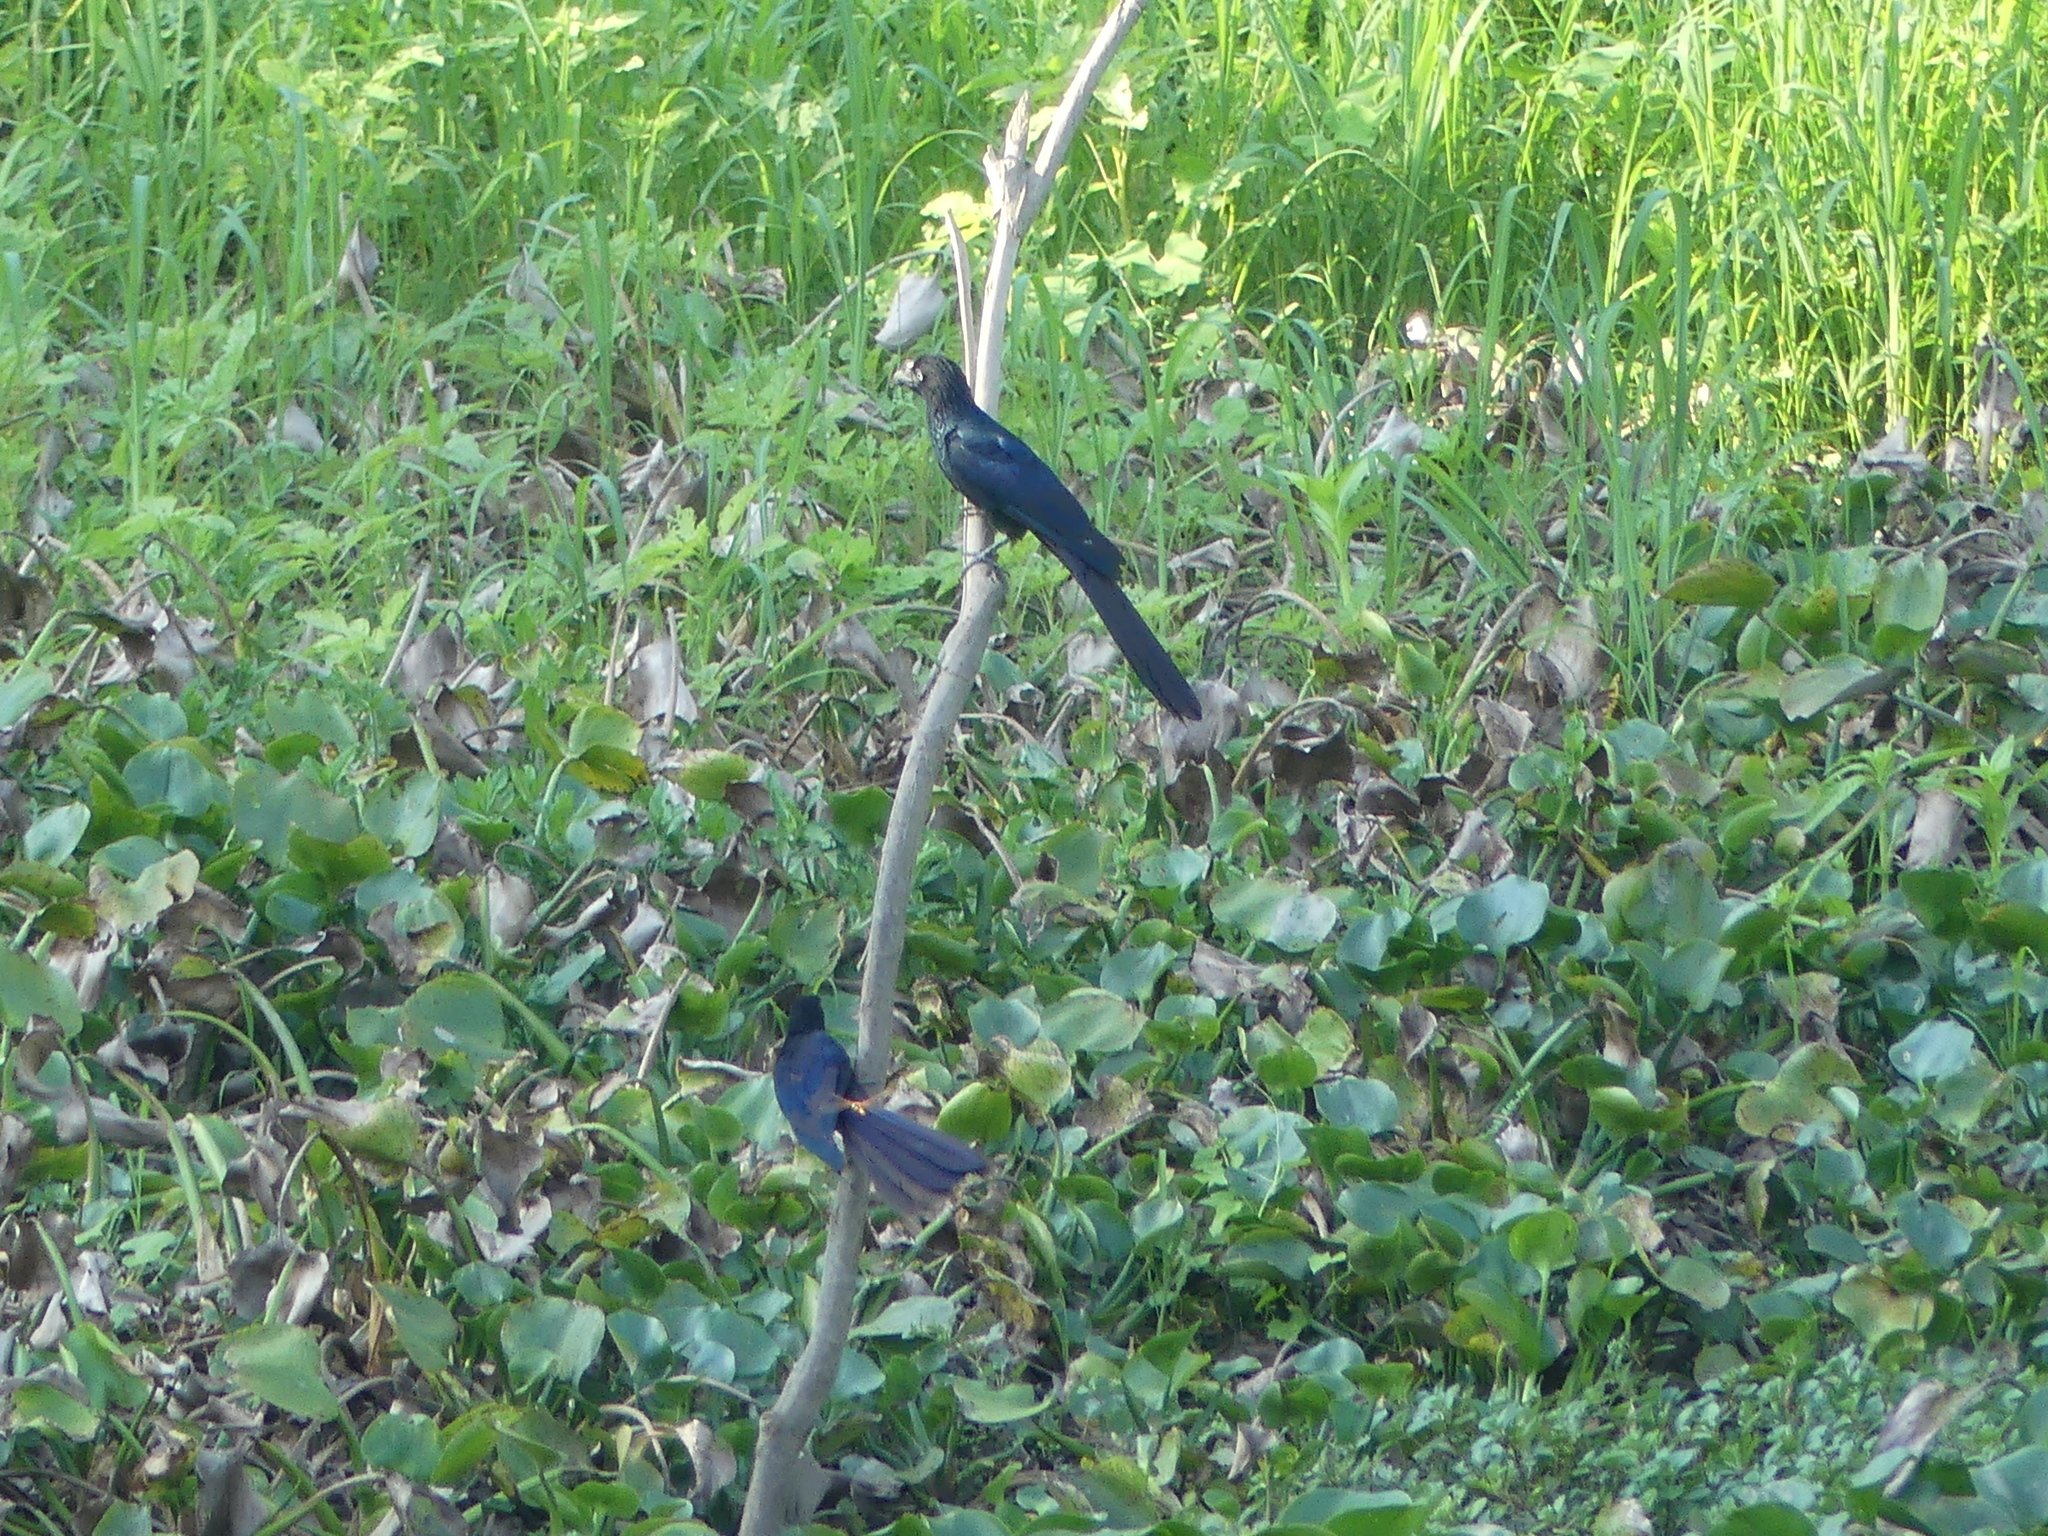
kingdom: Animalia
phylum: Chordata
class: Aves
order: Cuculiformes
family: Cuculidae
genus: Crotophaga
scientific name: Crotophaga major
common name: Greater ani
